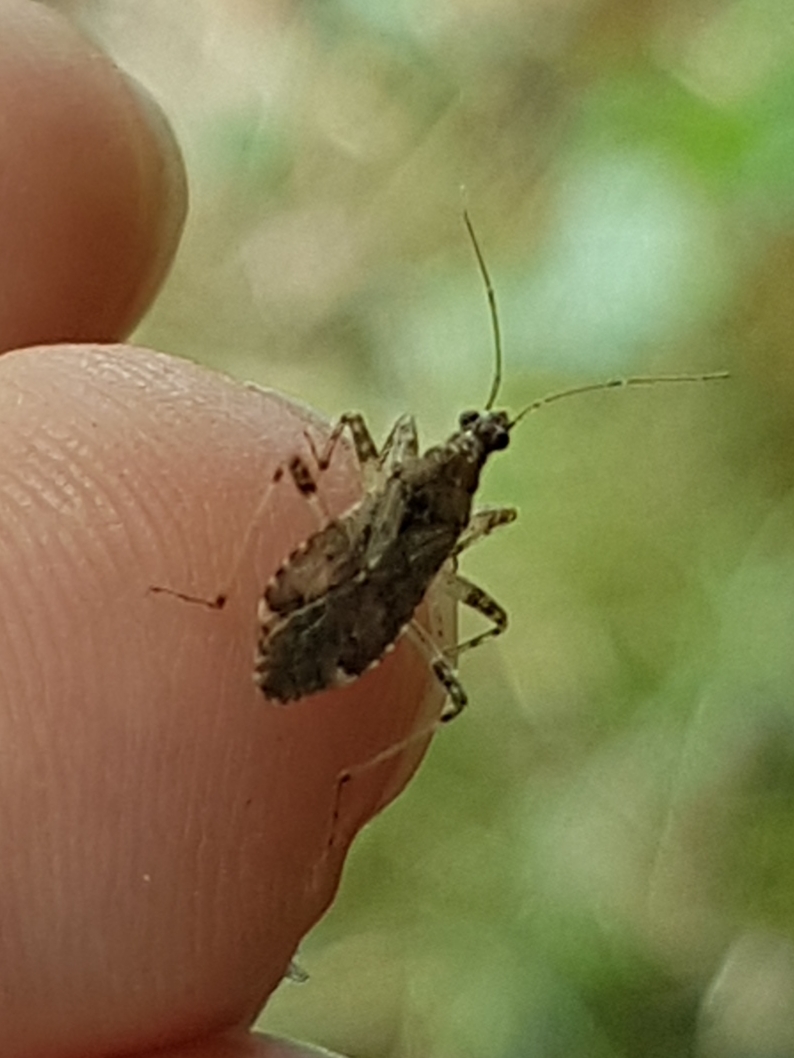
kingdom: Animalia
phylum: Arthropoda
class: Insecta
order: Hemiptera
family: Nabidae
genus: Himacerus
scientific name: Himacerus mirmicoides
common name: Ant damsel bug
